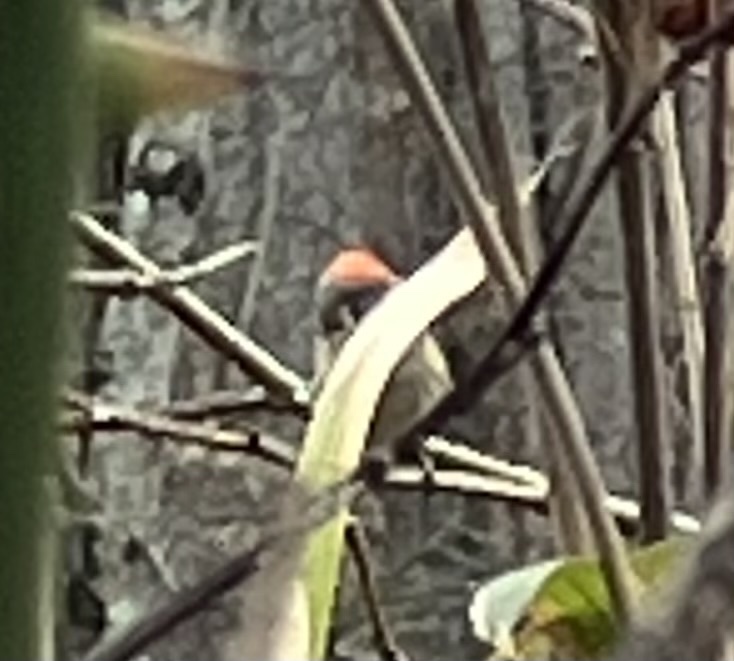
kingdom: Animalia
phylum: Chordata
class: Aves
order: Passeriformes
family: Regulidae
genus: Regulus
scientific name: Regulus calendula
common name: Ruby-crowned kinglet
